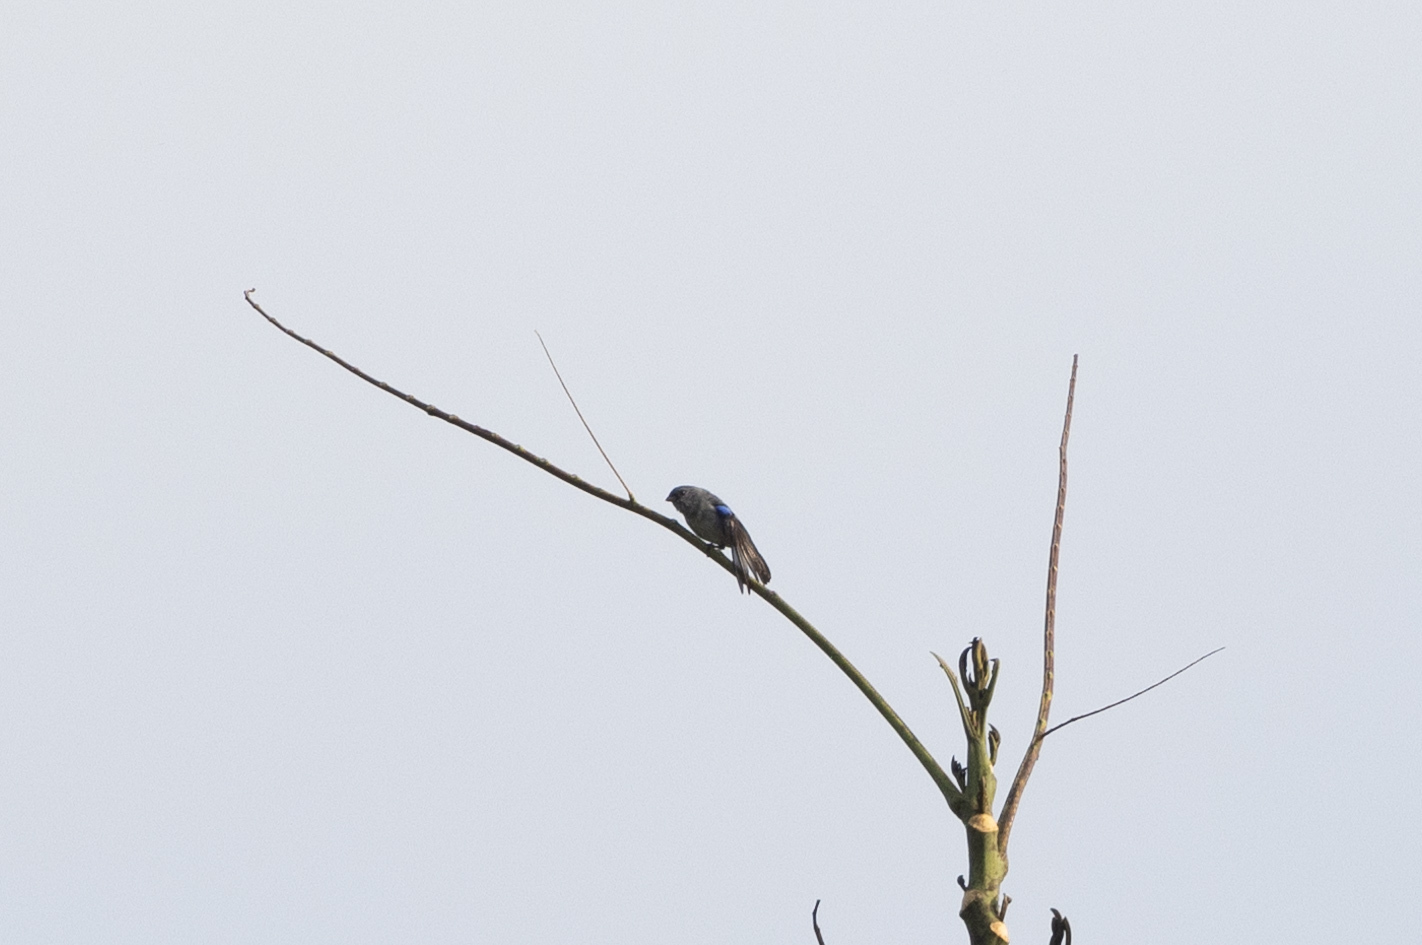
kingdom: Animalia
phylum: Chordata
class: Aves
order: Passeriformes
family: Thraupidae
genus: Tangara
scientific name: Tangara inornata
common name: Plain-colored tanager
